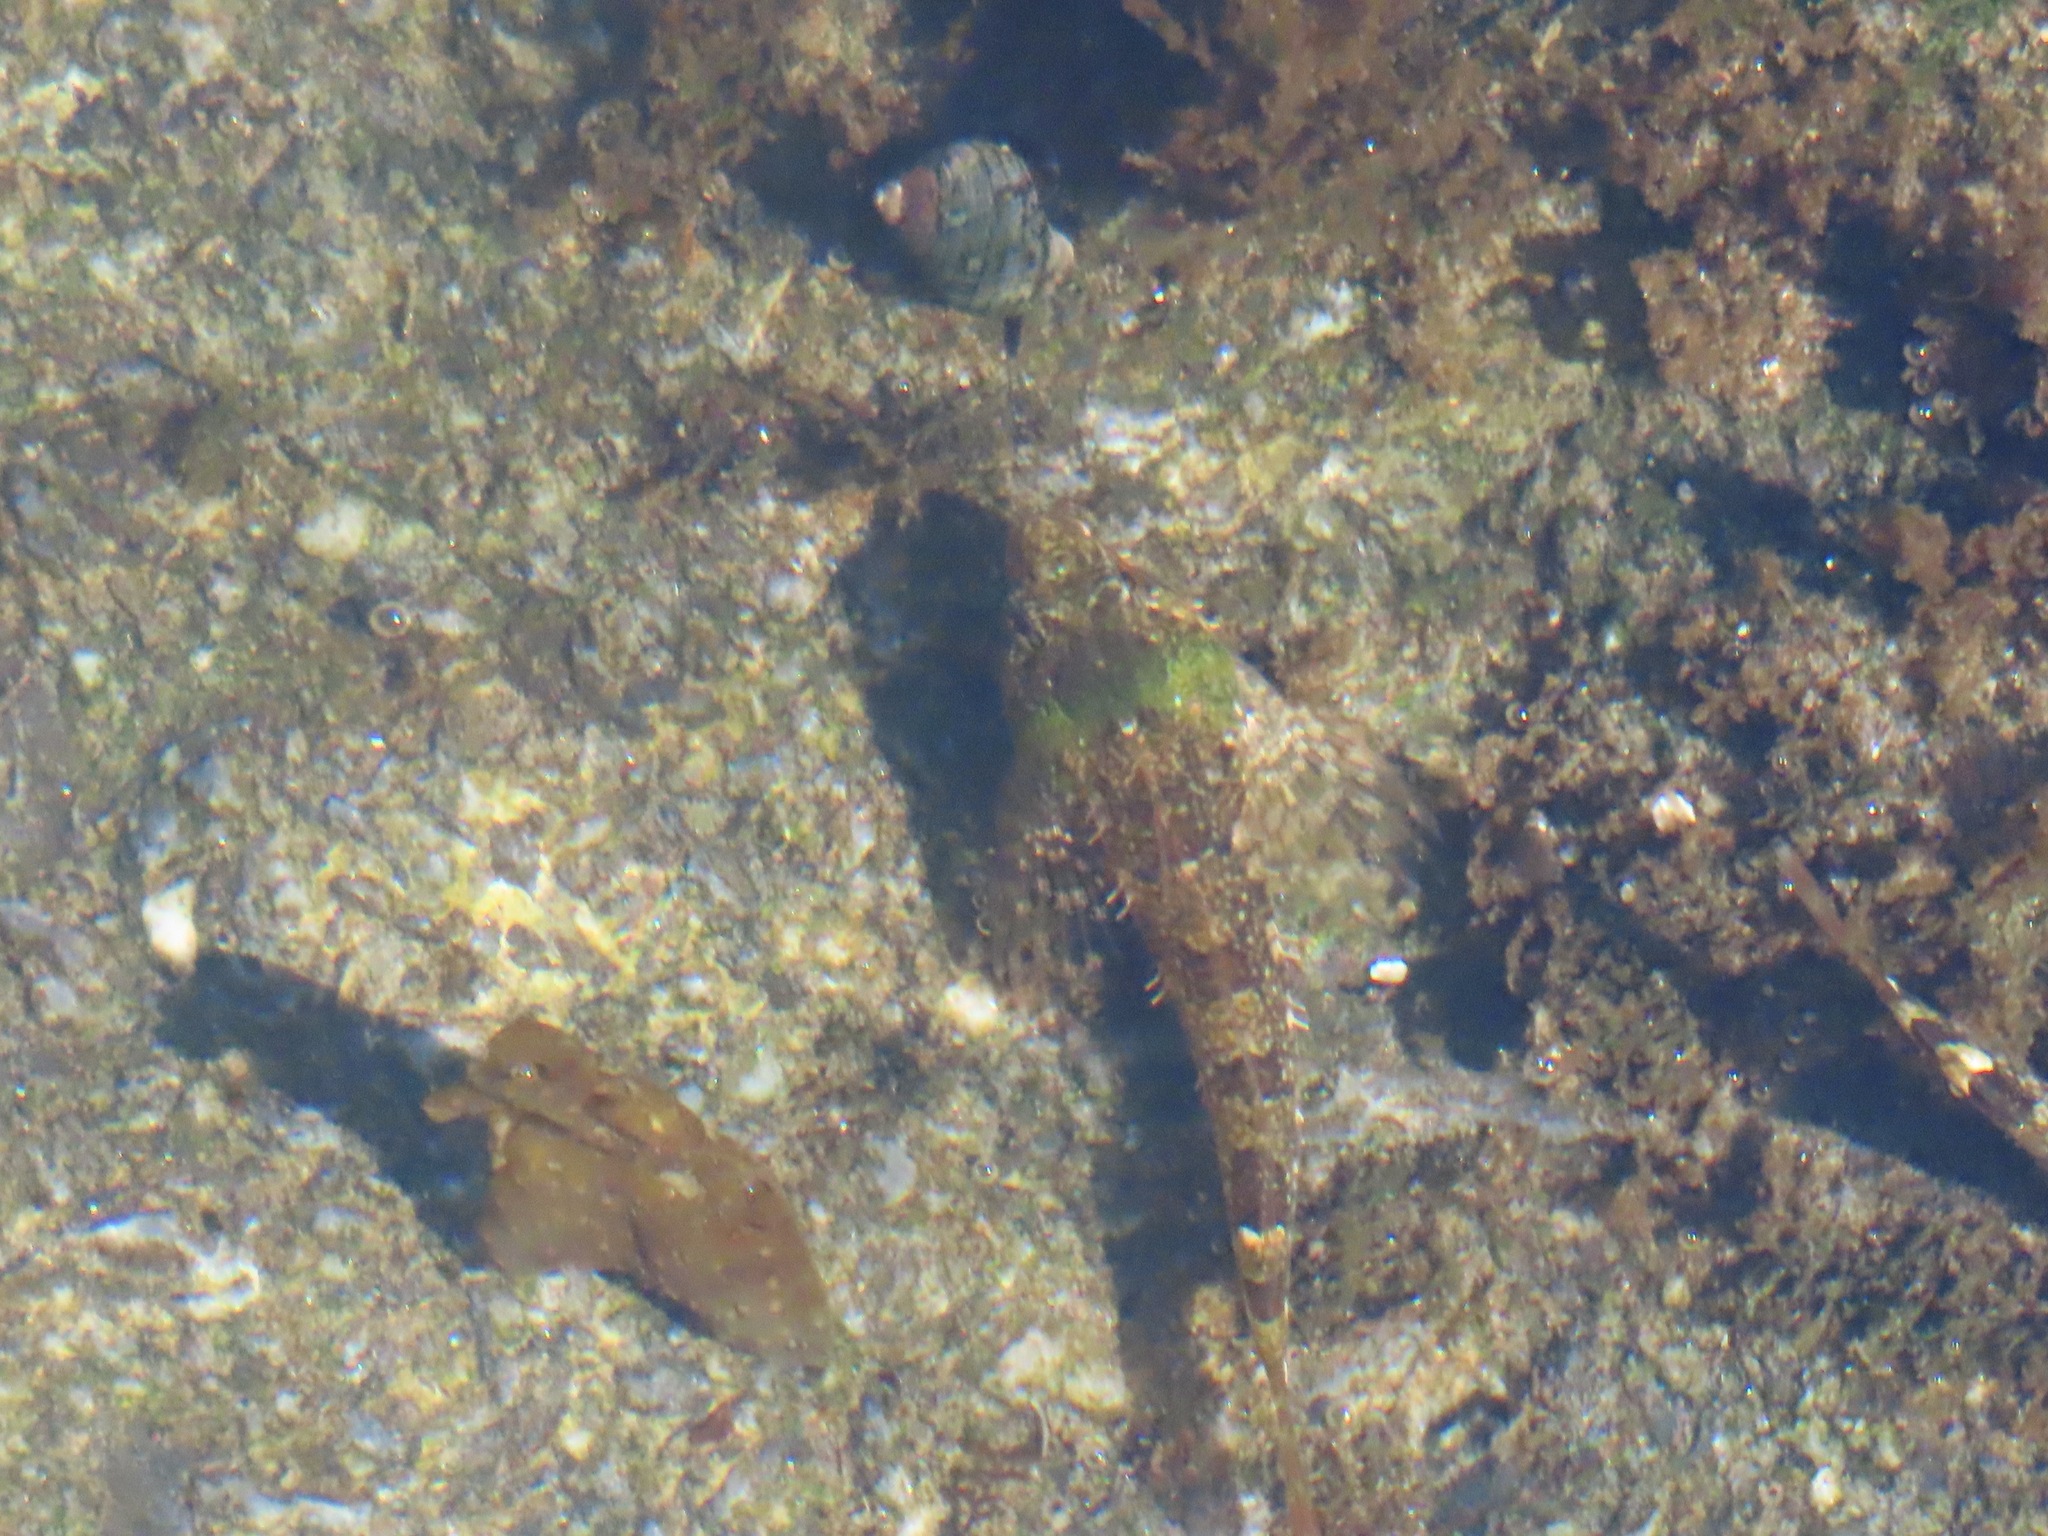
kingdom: Animalia
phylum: Chordata
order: Scorpaeniformes
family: Cottidae
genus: Oligocottus
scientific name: Oligocottus maculosus
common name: Tidepool sculpin
